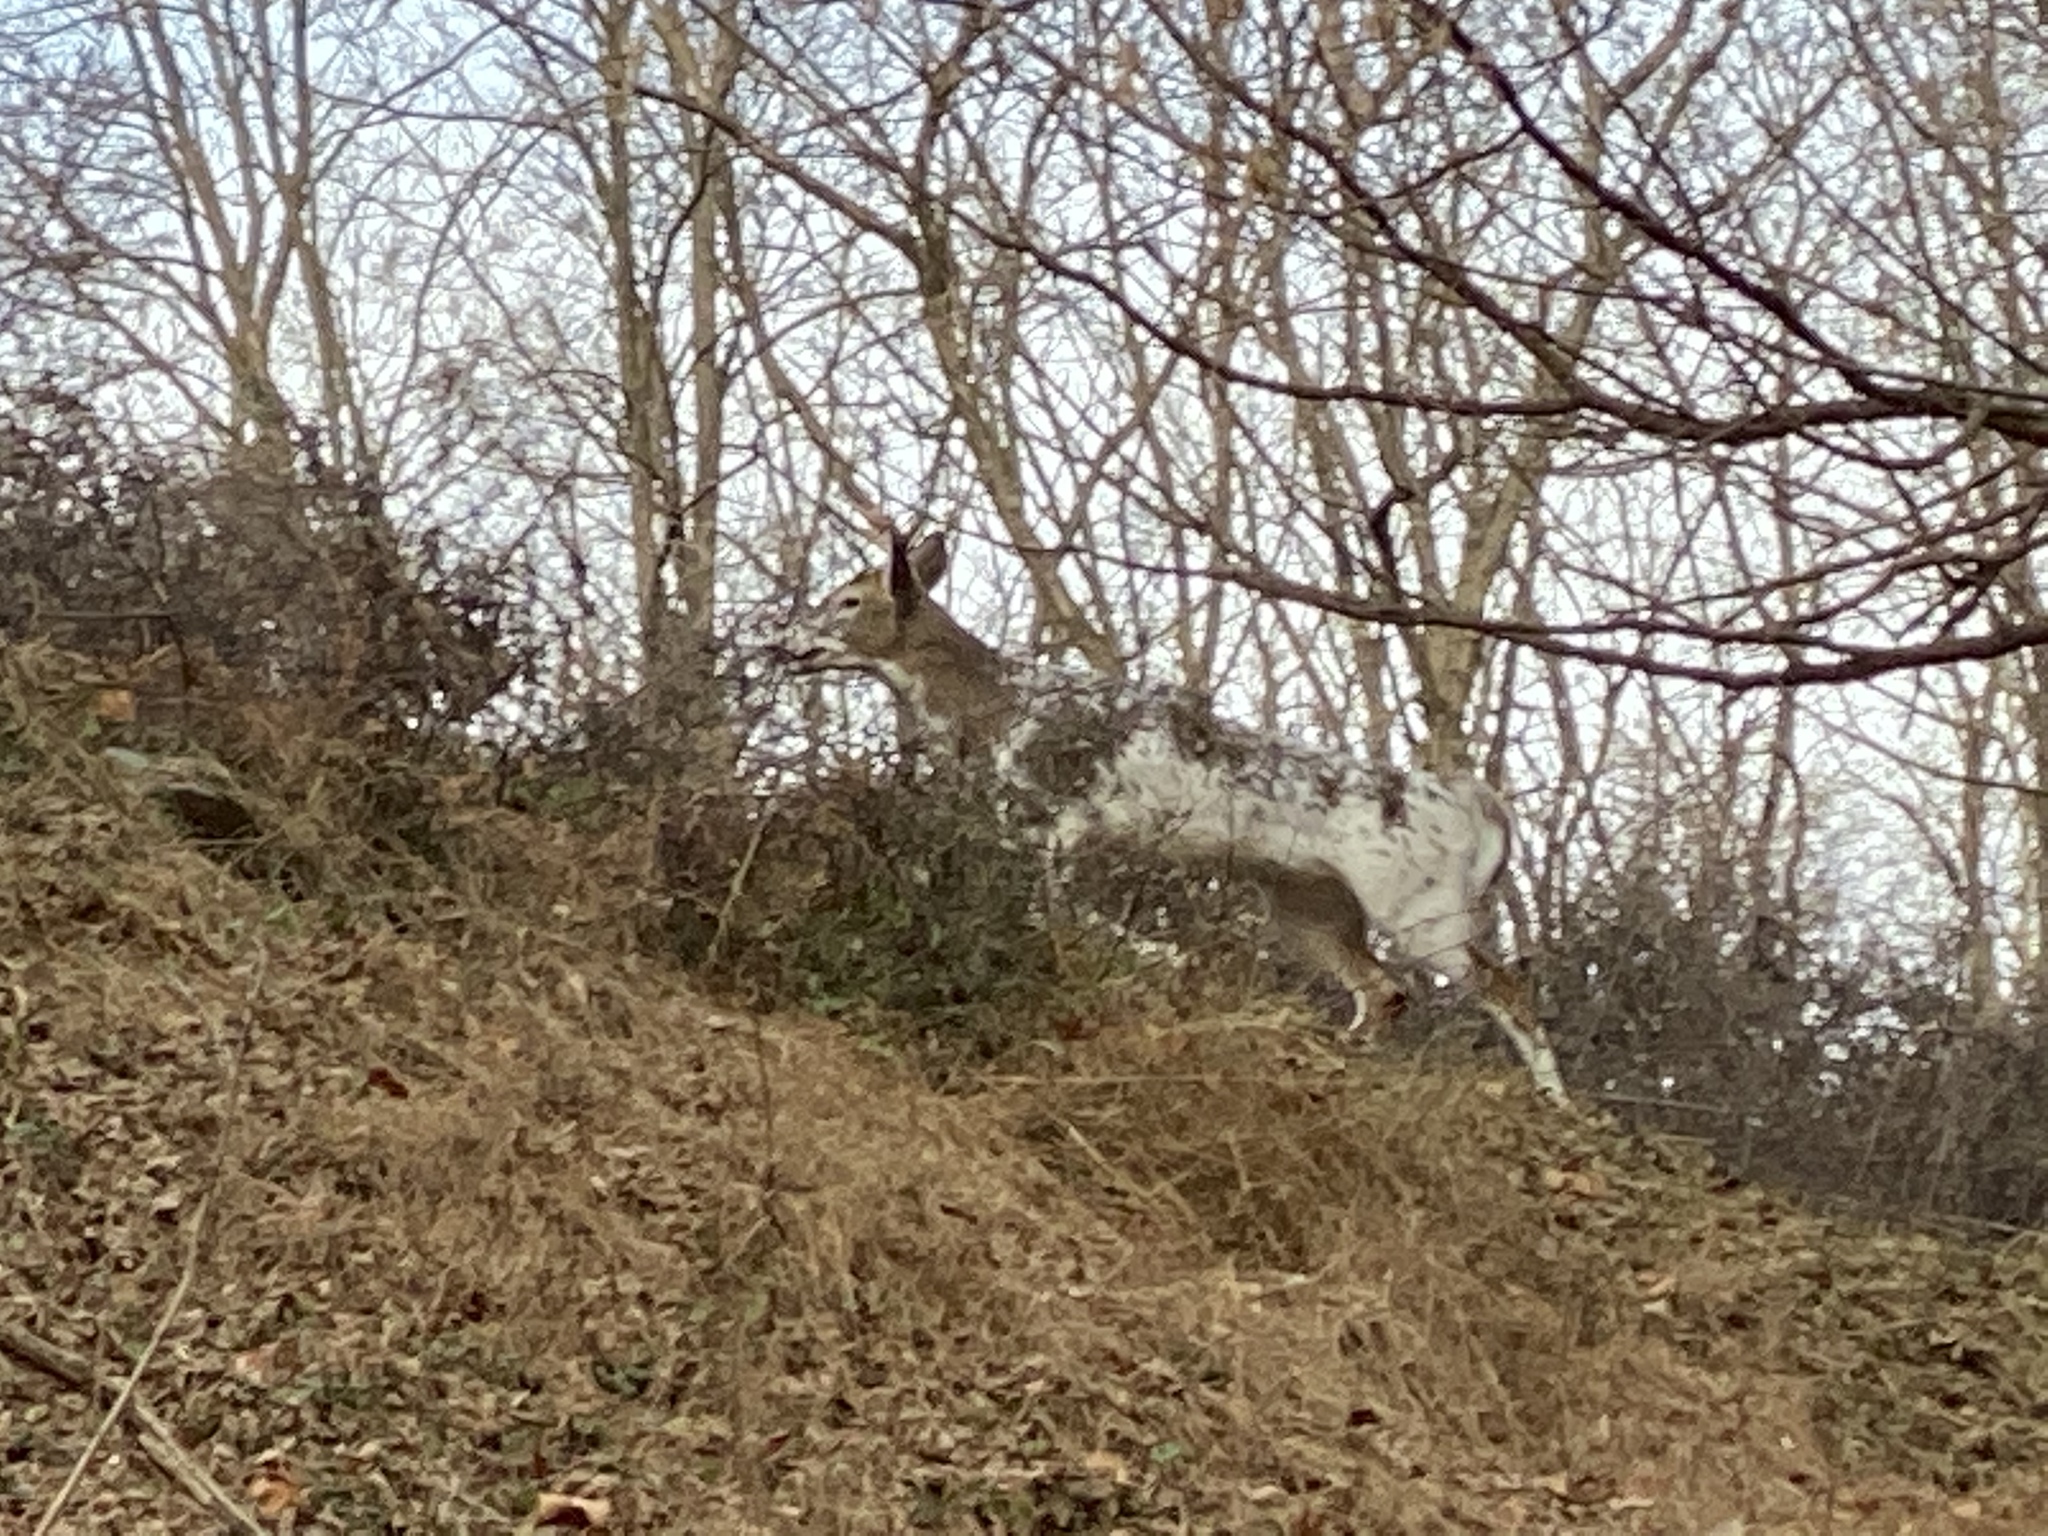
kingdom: Animalia
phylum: Chordata
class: Mammalia
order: Artiodactyla
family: Cervidae
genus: Odocoileus
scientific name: Odocoileus virginianus
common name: White-tailed deer
